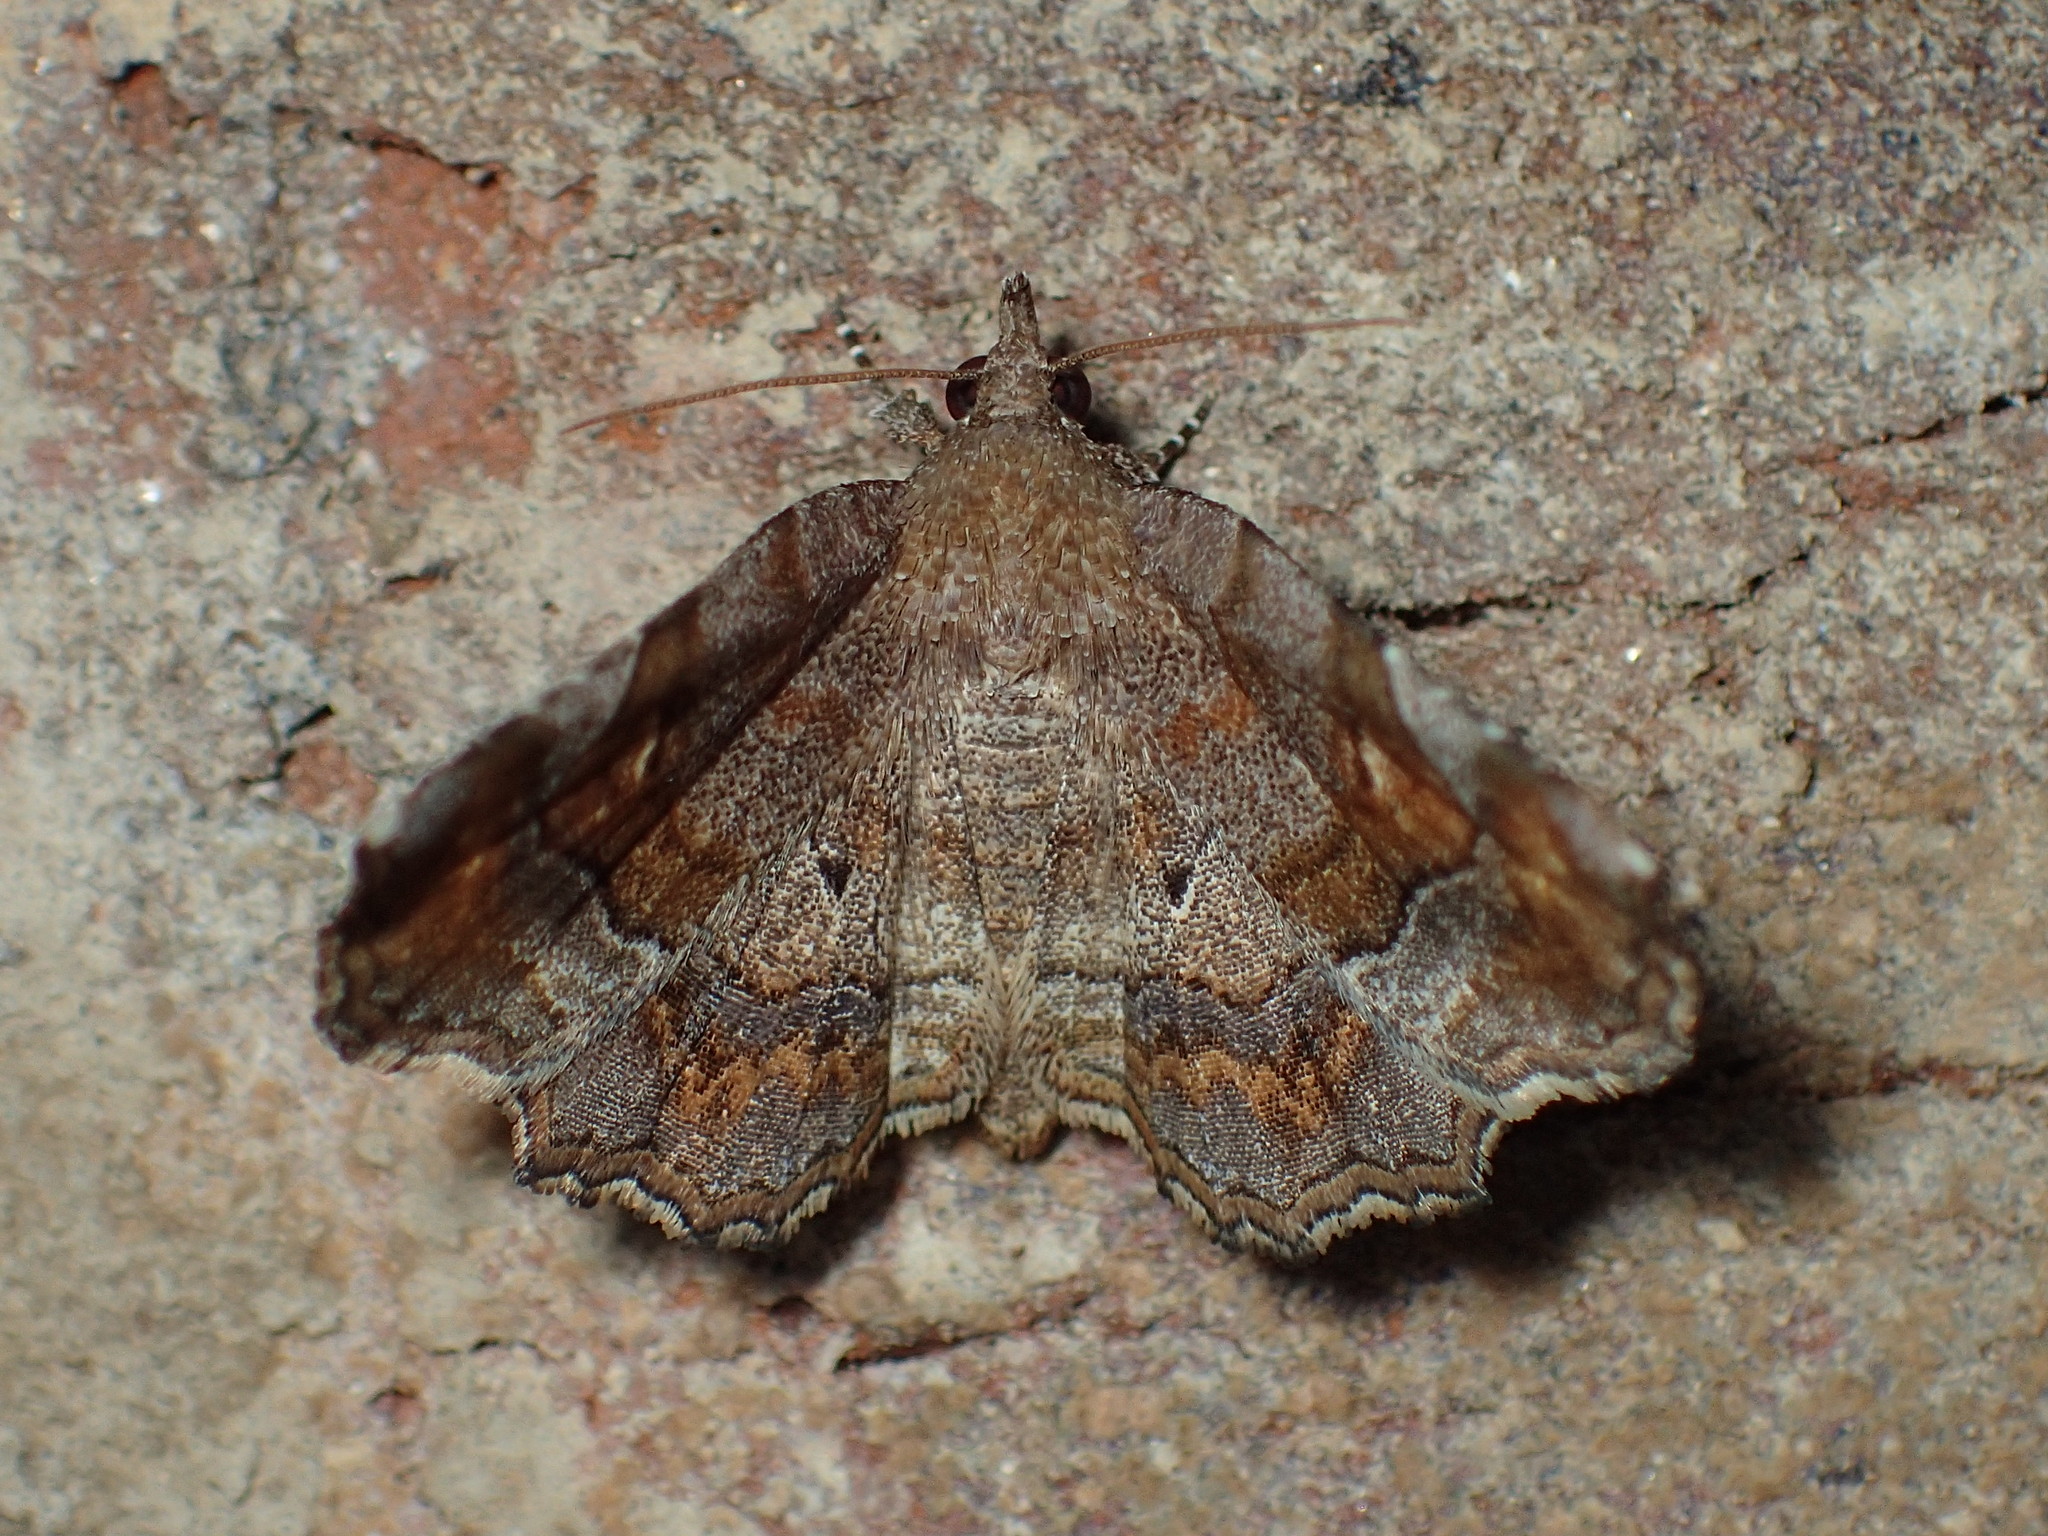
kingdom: Animalia
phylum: Arthropoda
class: Insecta
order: Lepidoptera
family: Erebidae
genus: Pangrapta
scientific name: Pangrapta decoralis
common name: Decorated owlet
